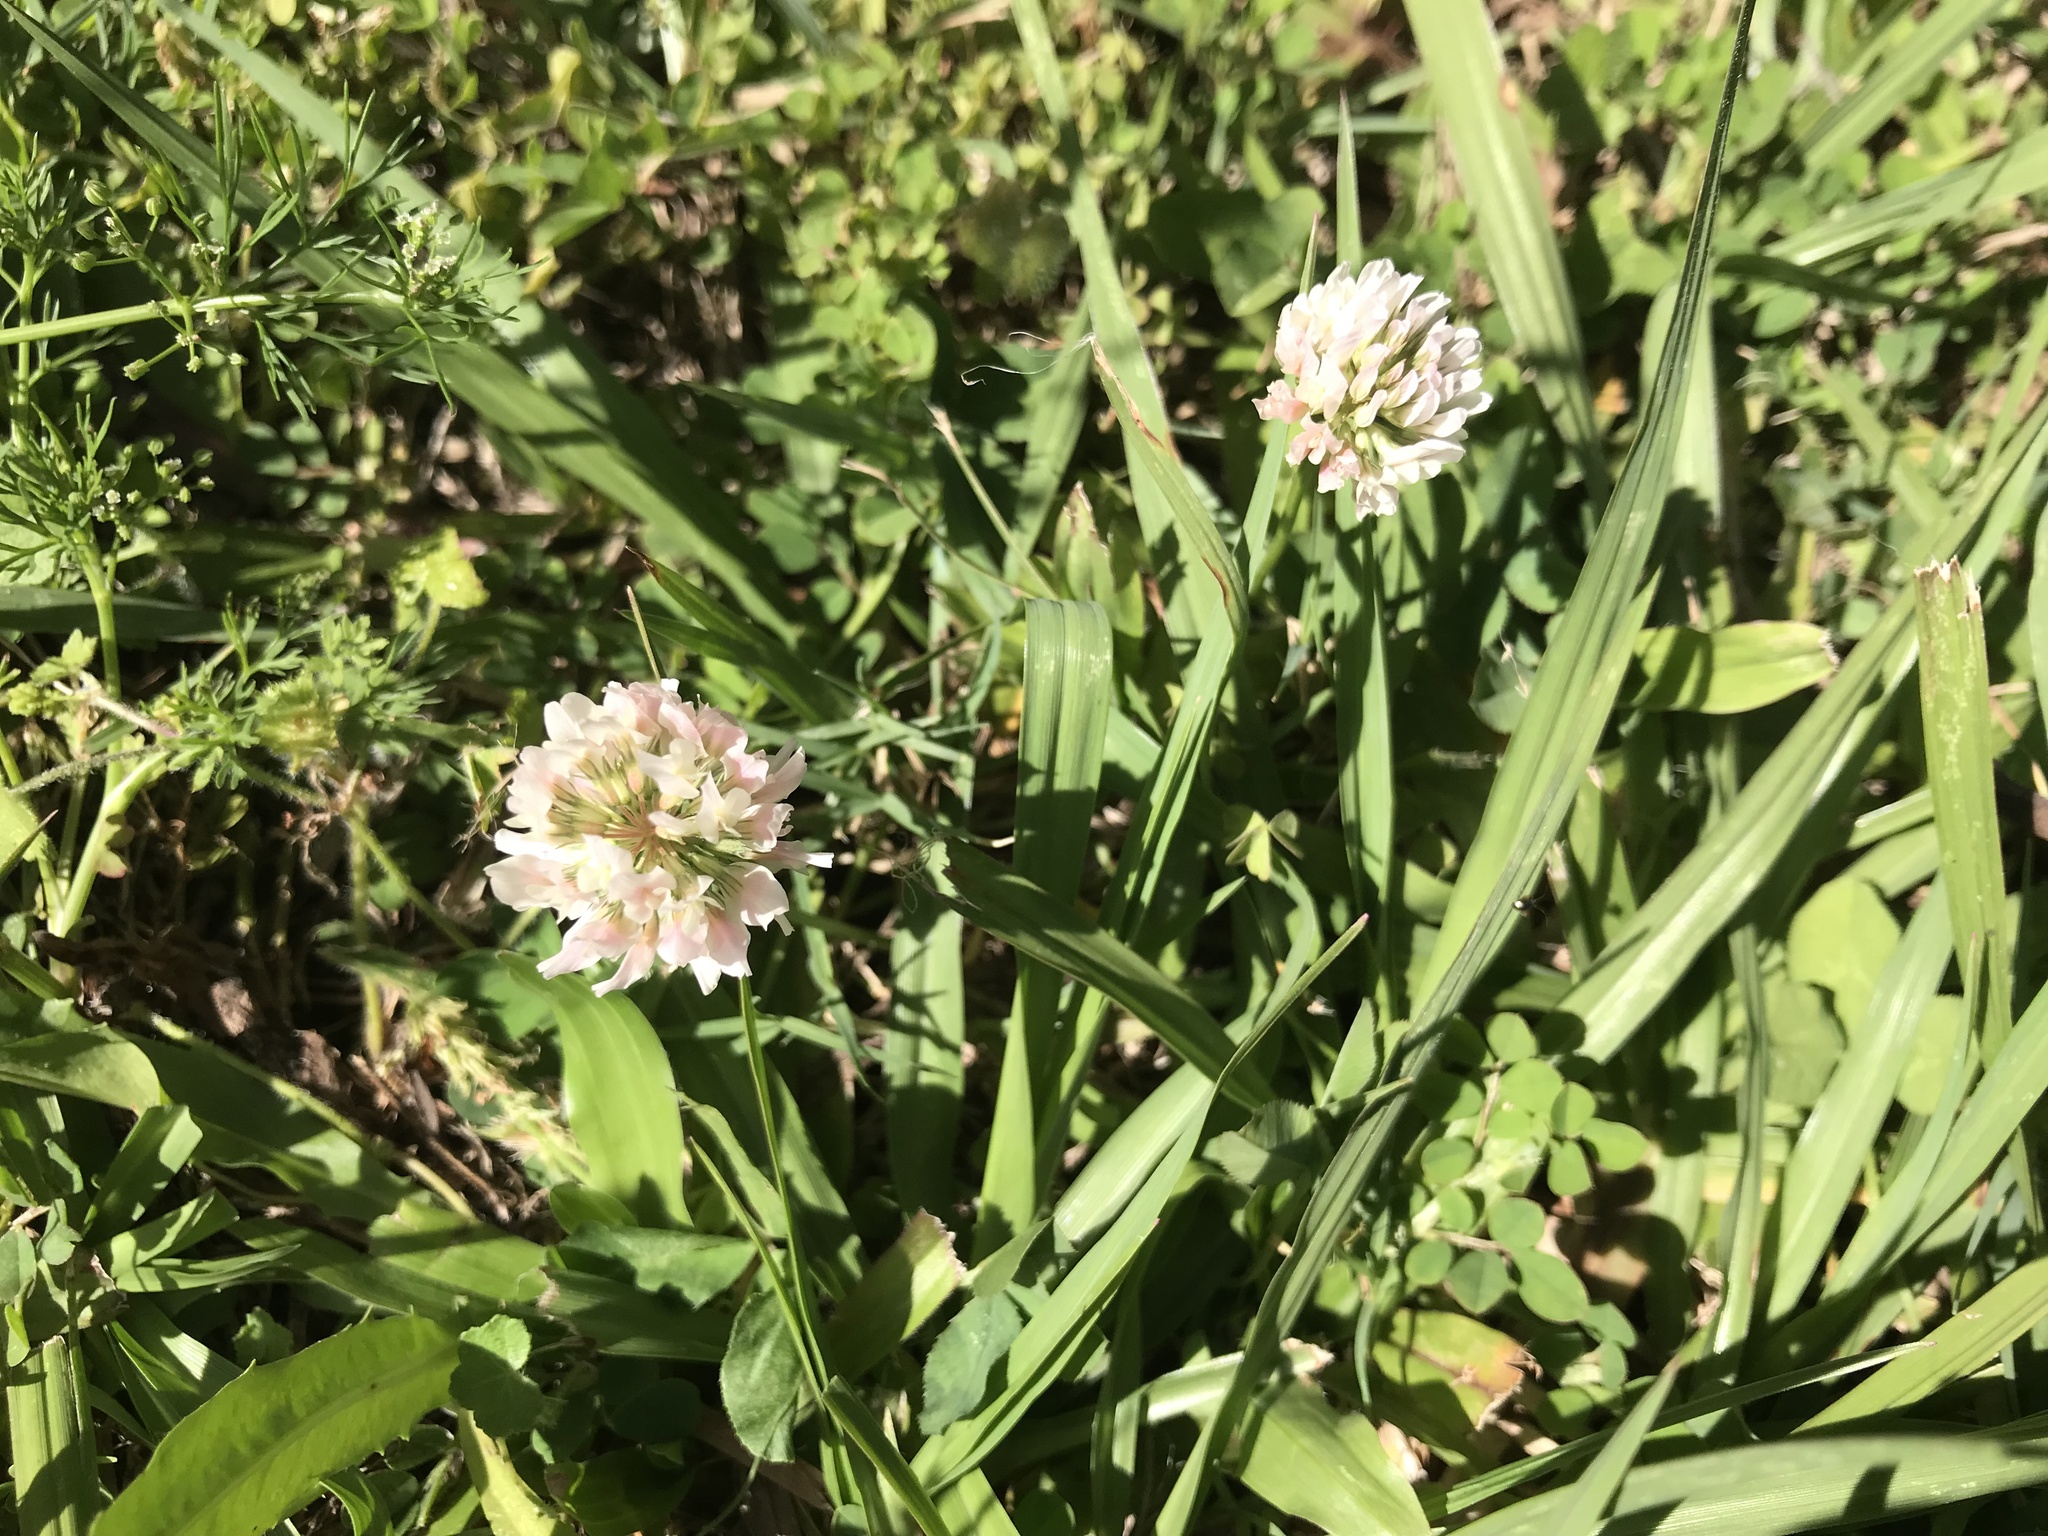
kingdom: Plantae
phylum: Tracheophyta
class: Magnoliopsida
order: Fabales
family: Fabaceae
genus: Trifolium
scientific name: Trifolium repens
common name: White clover
